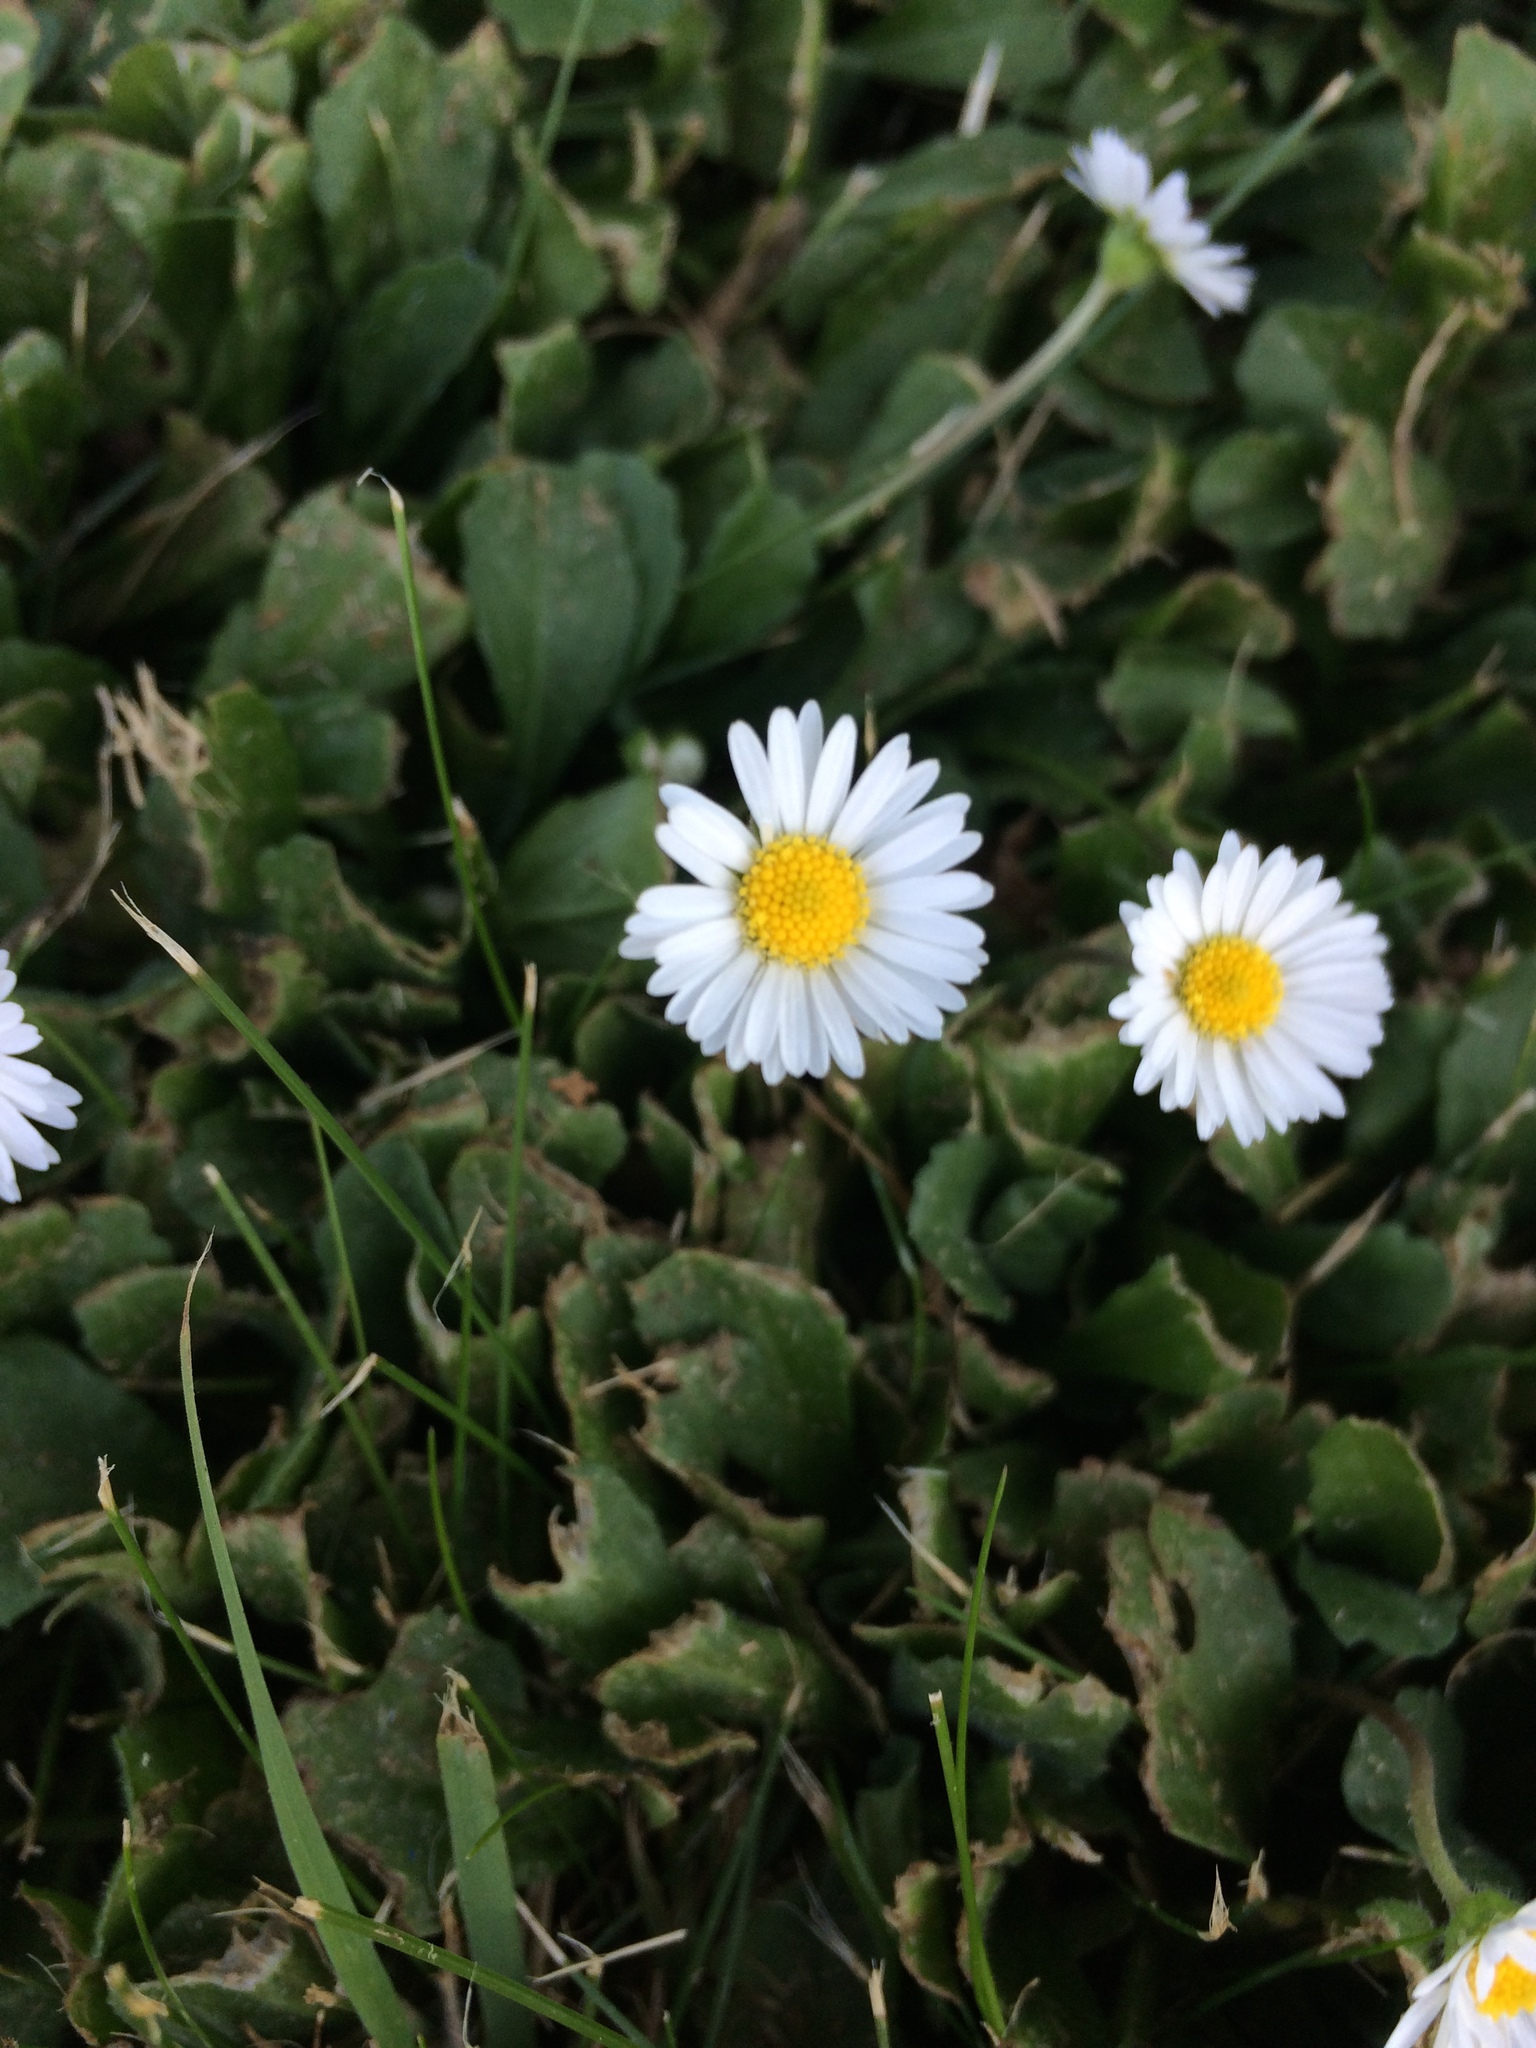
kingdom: Plantae
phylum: Tracheophyta
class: Magnoliopsida
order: Asterales
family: Asteraceae
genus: Bellis
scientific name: Bellis perennis
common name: Lawndaisy
